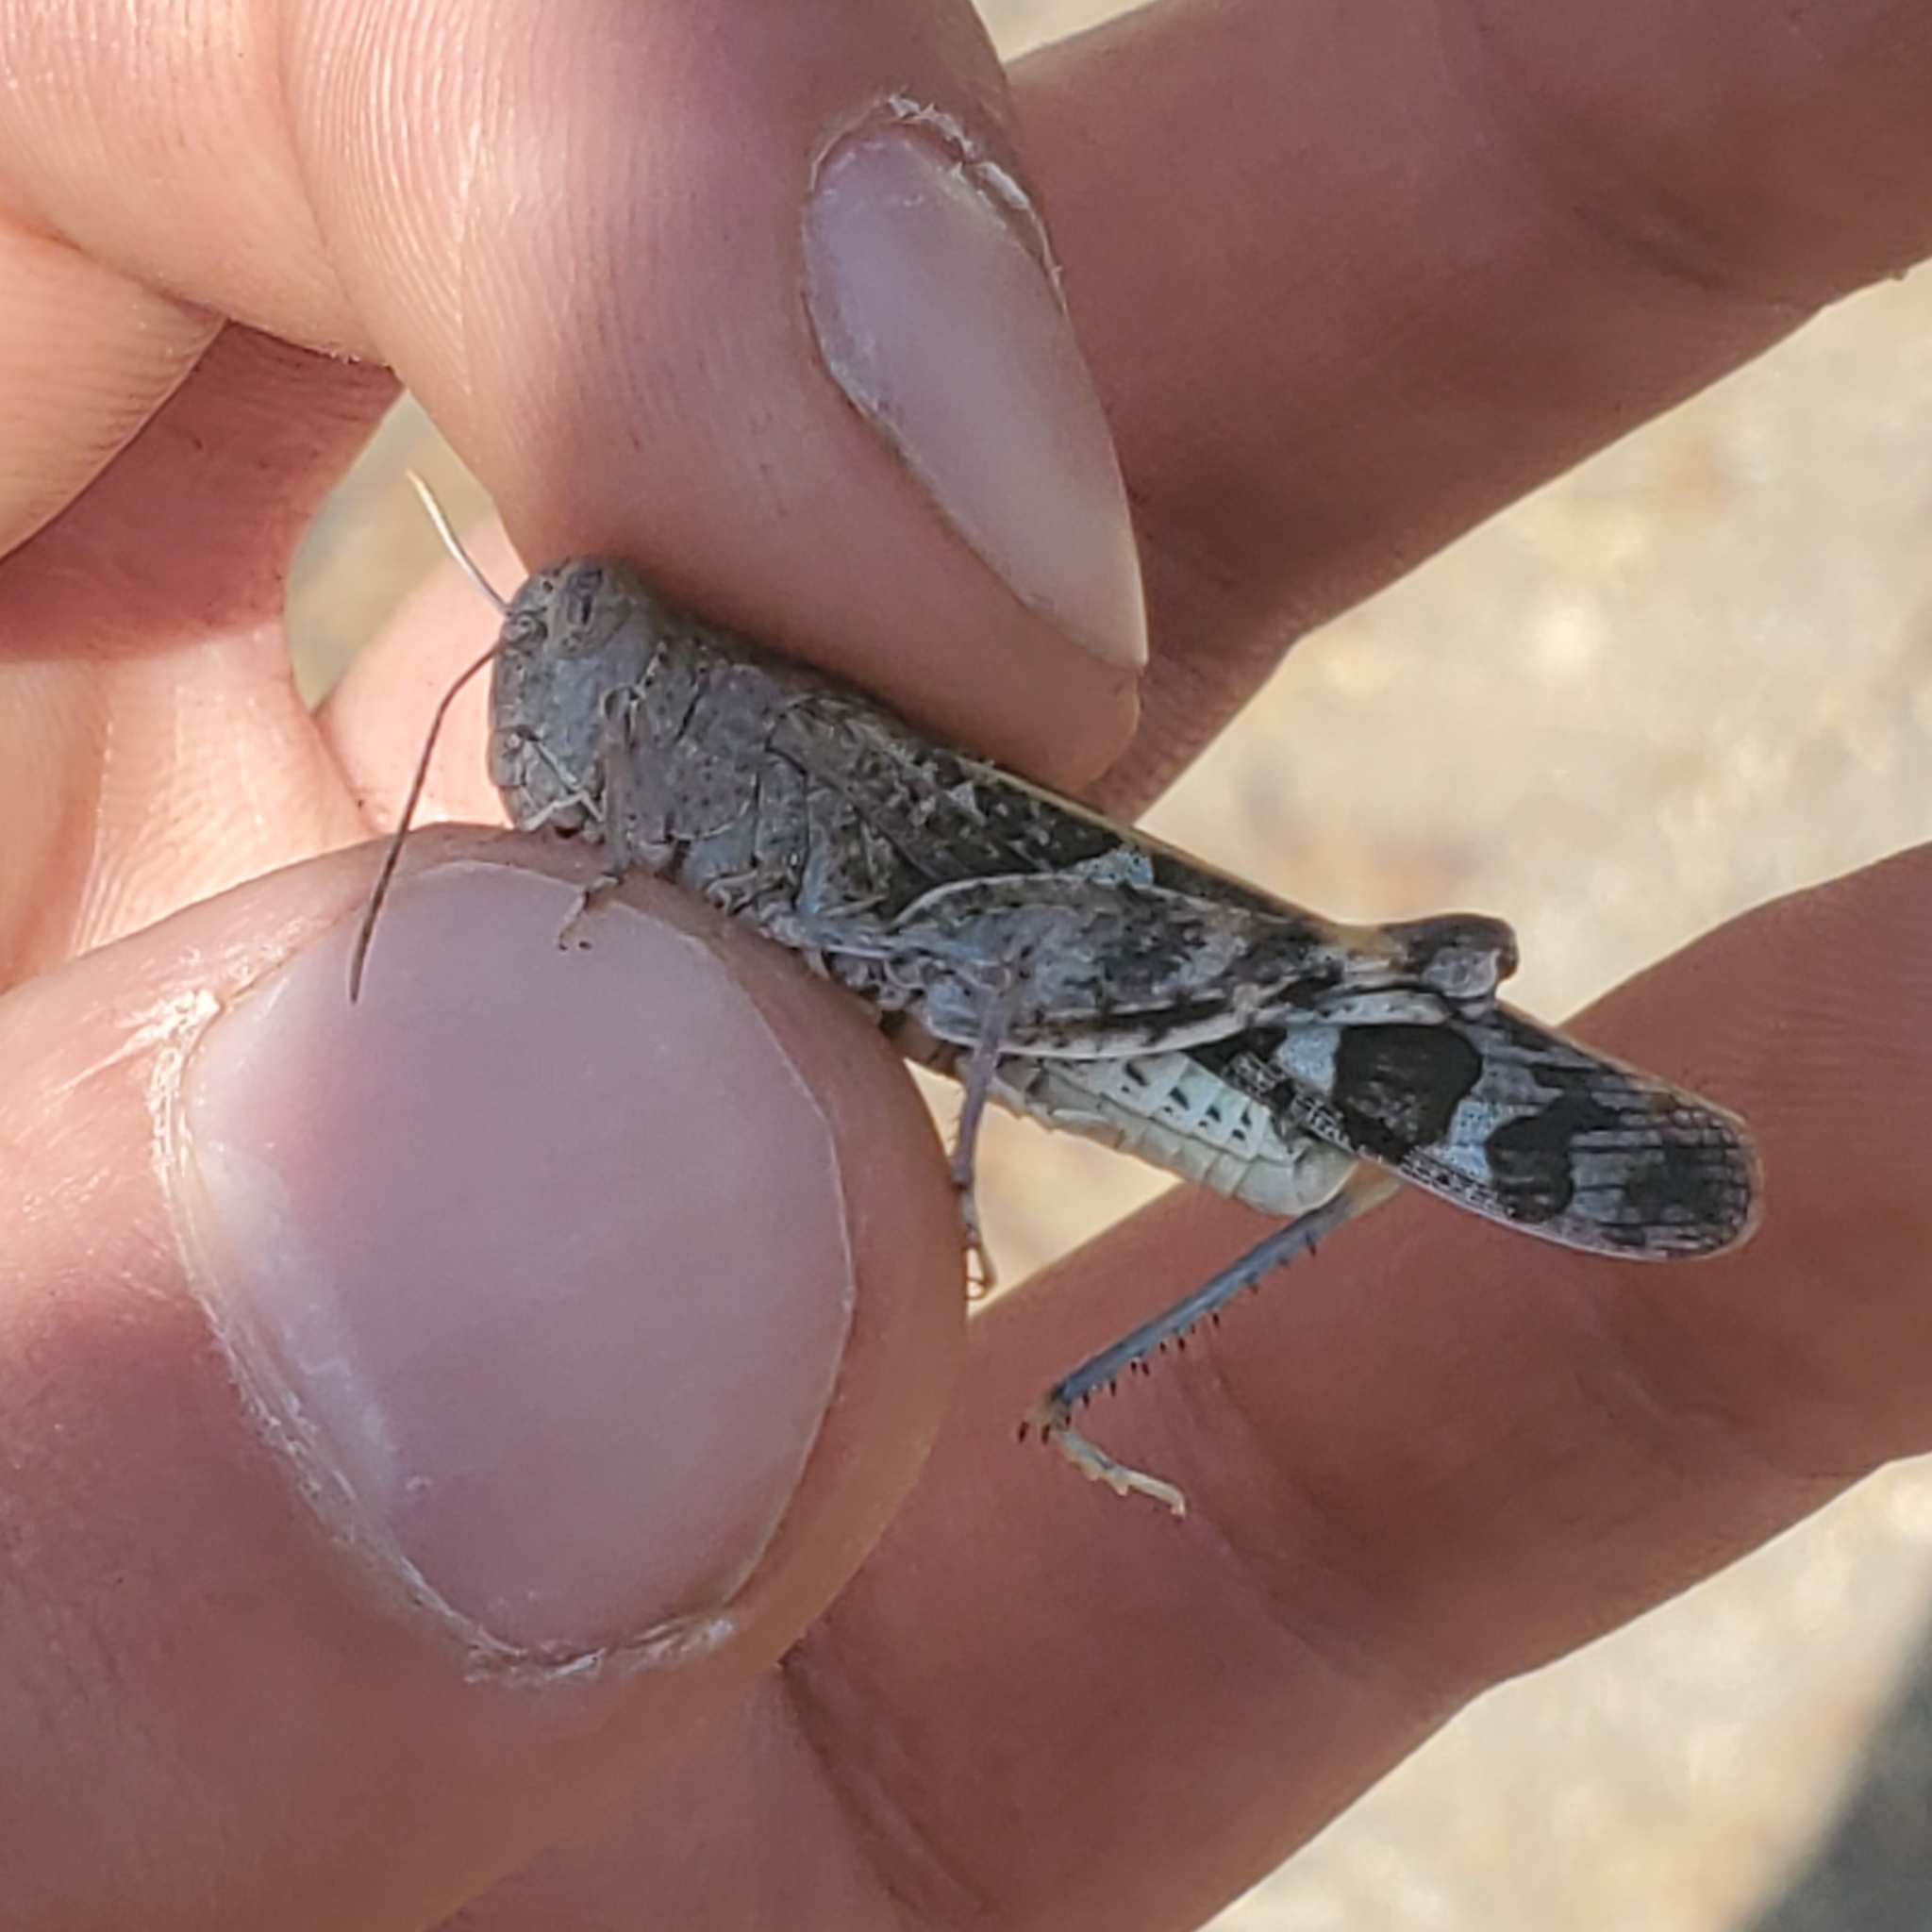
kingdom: Animalia
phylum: Arthropoda
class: Insecta
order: Orthoptera
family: Acrididae
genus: Leprus
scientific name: Leprus intermedius
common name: Saussure's blue-winged grasshopper
